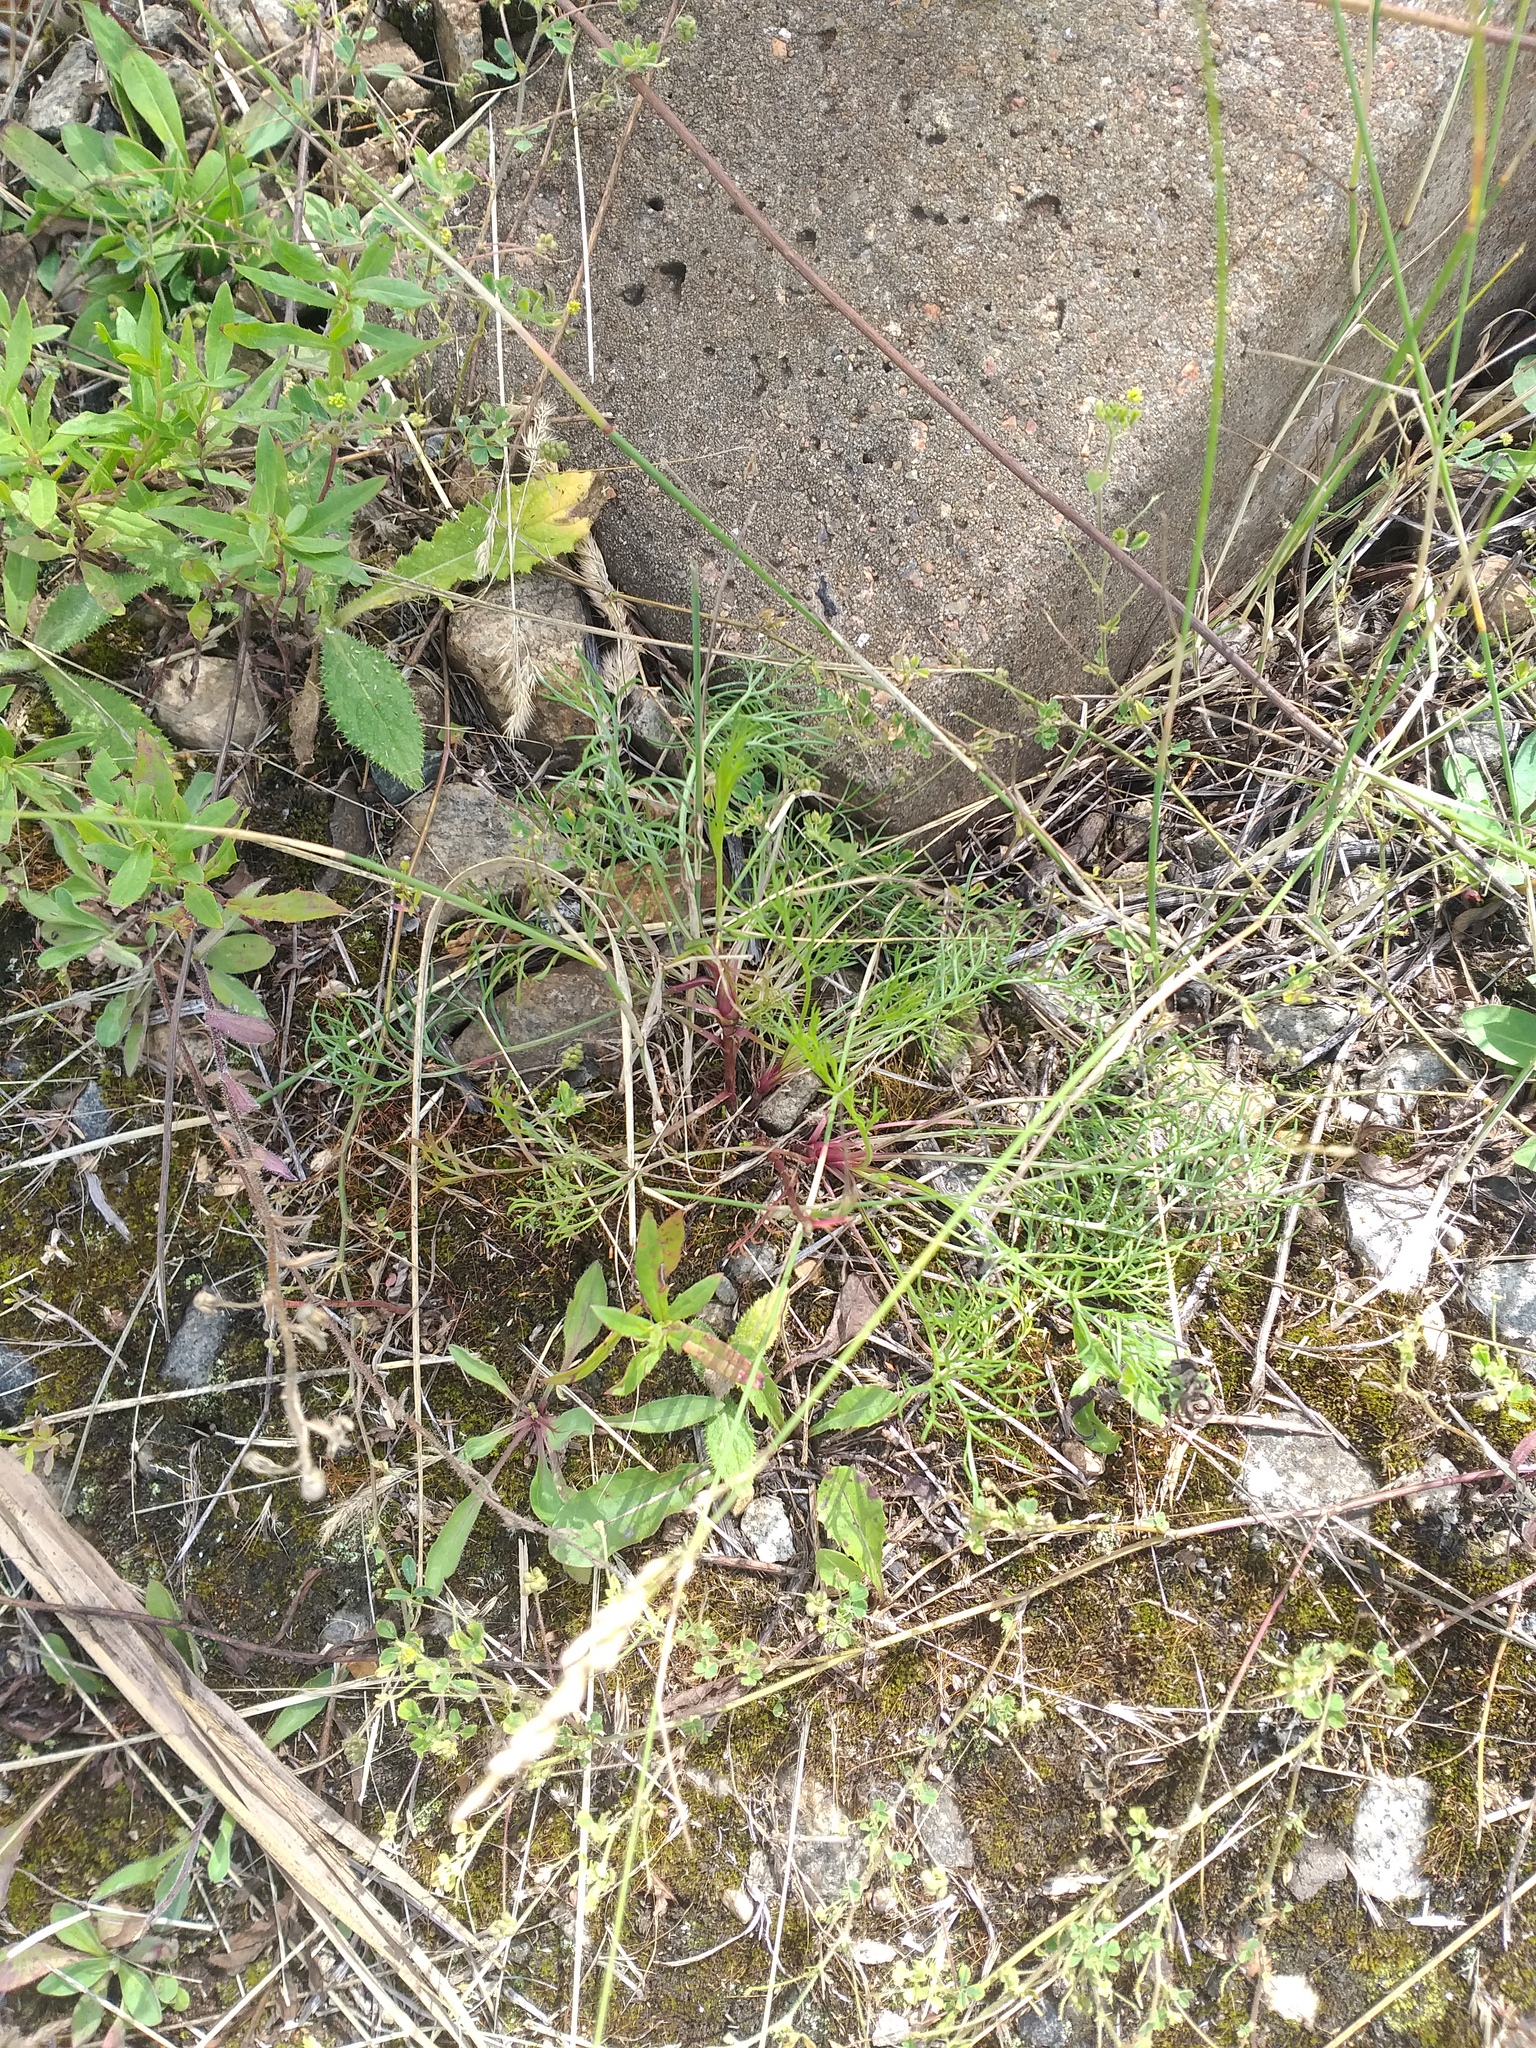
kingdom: Plantae
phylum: Tracheophyta
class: Magnoliopsida
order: Asterales
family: Asteraceae
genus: Artemisia
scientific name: Artemisia campestris
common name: Field wormwood
